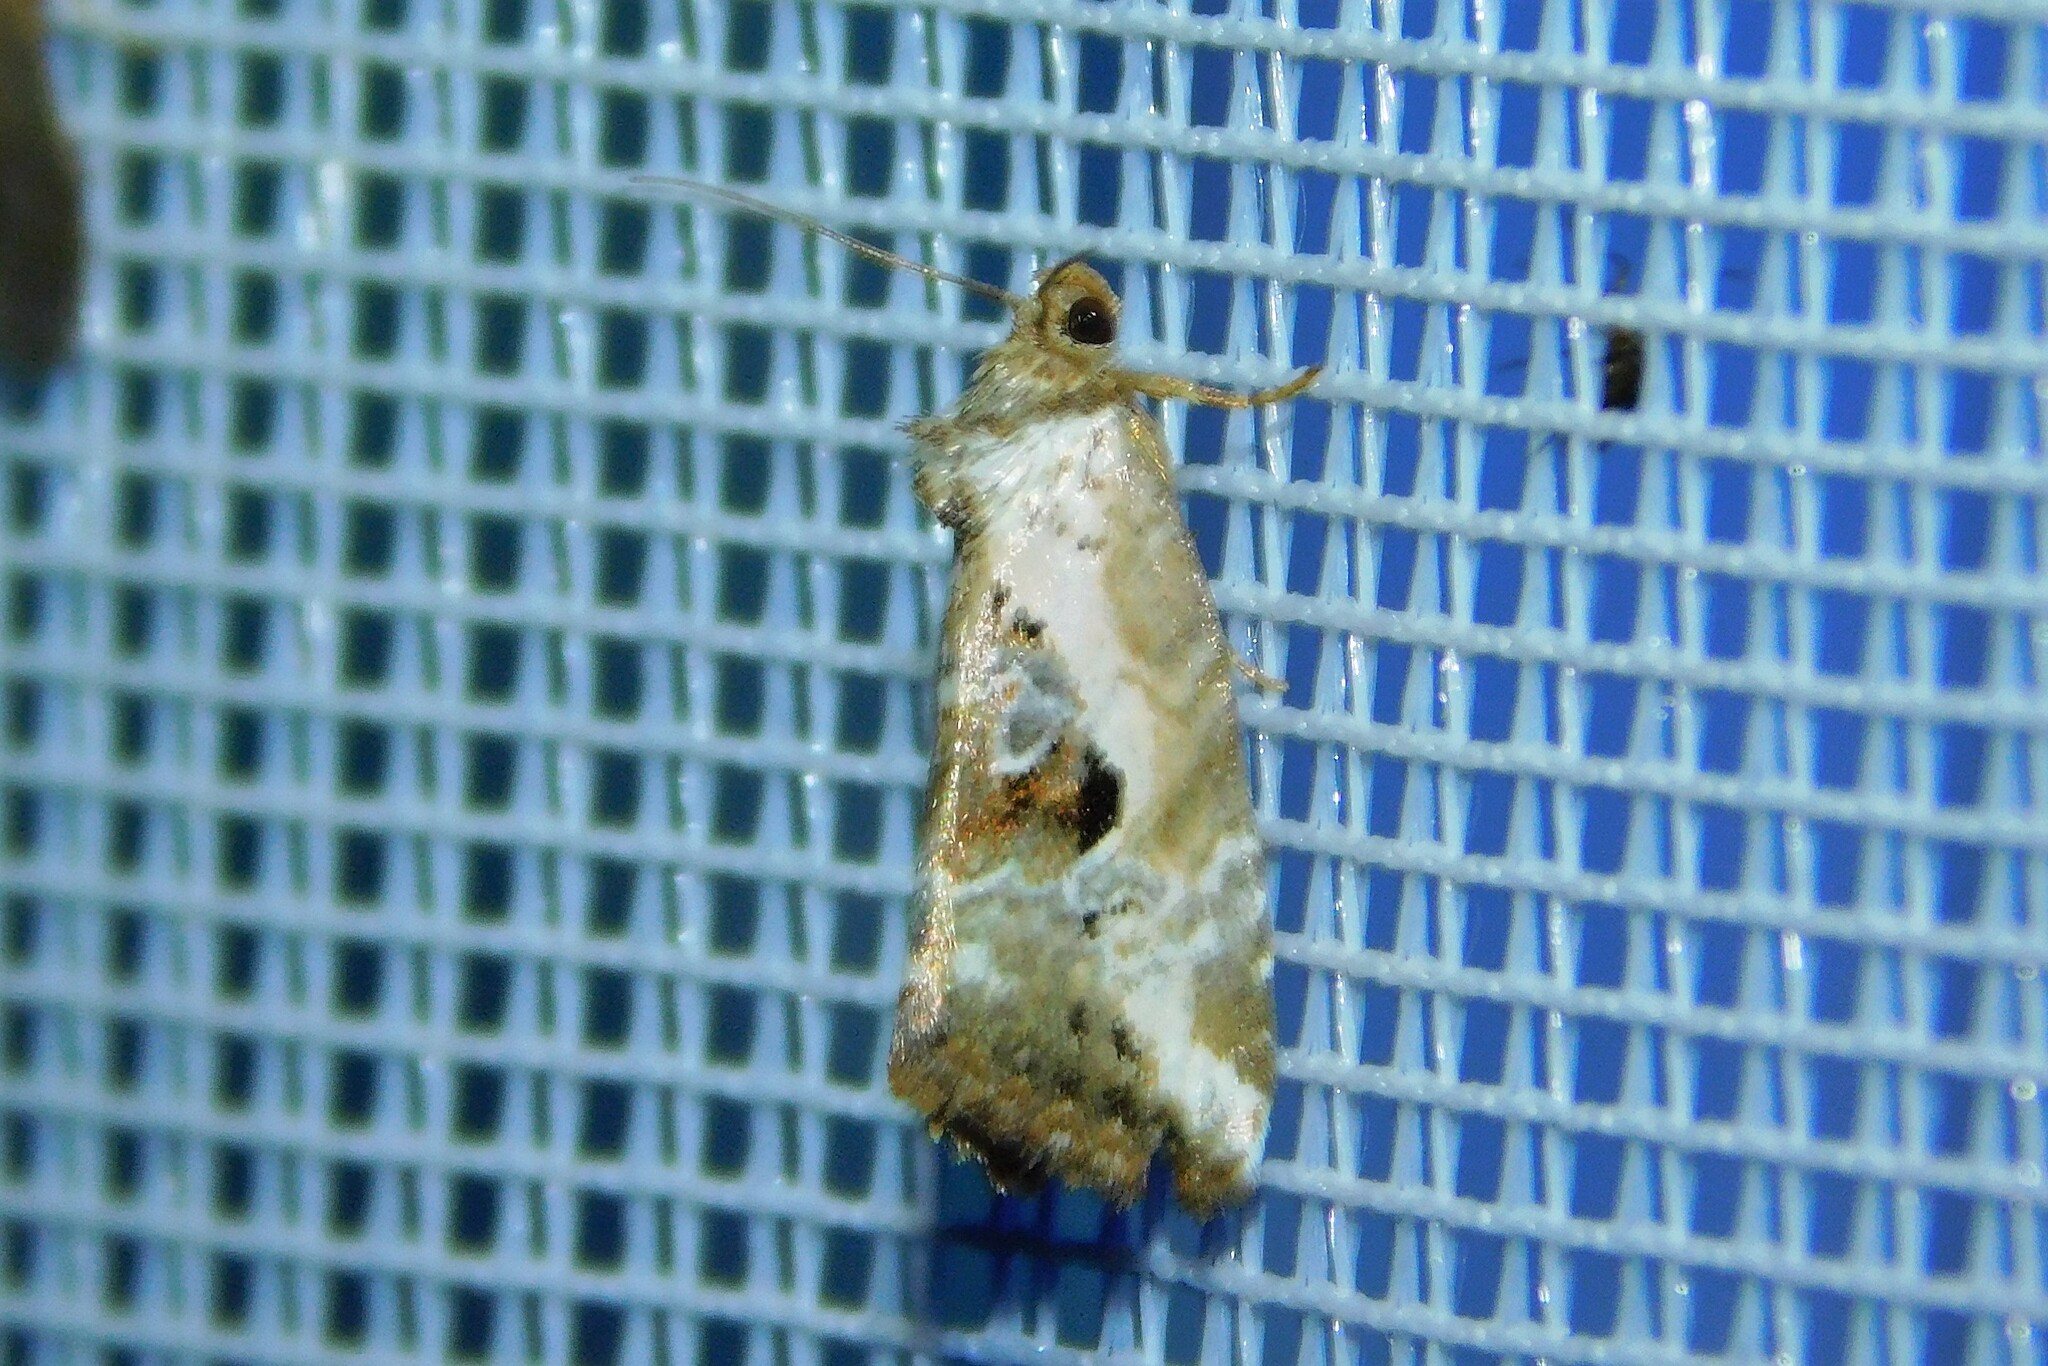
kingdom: Animalia
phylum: Arthropoda
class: Insecta
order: Lepidoptera
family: Noctuidae
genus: Elaphria
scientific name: Elaphria venustula
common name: Rosy marbled
